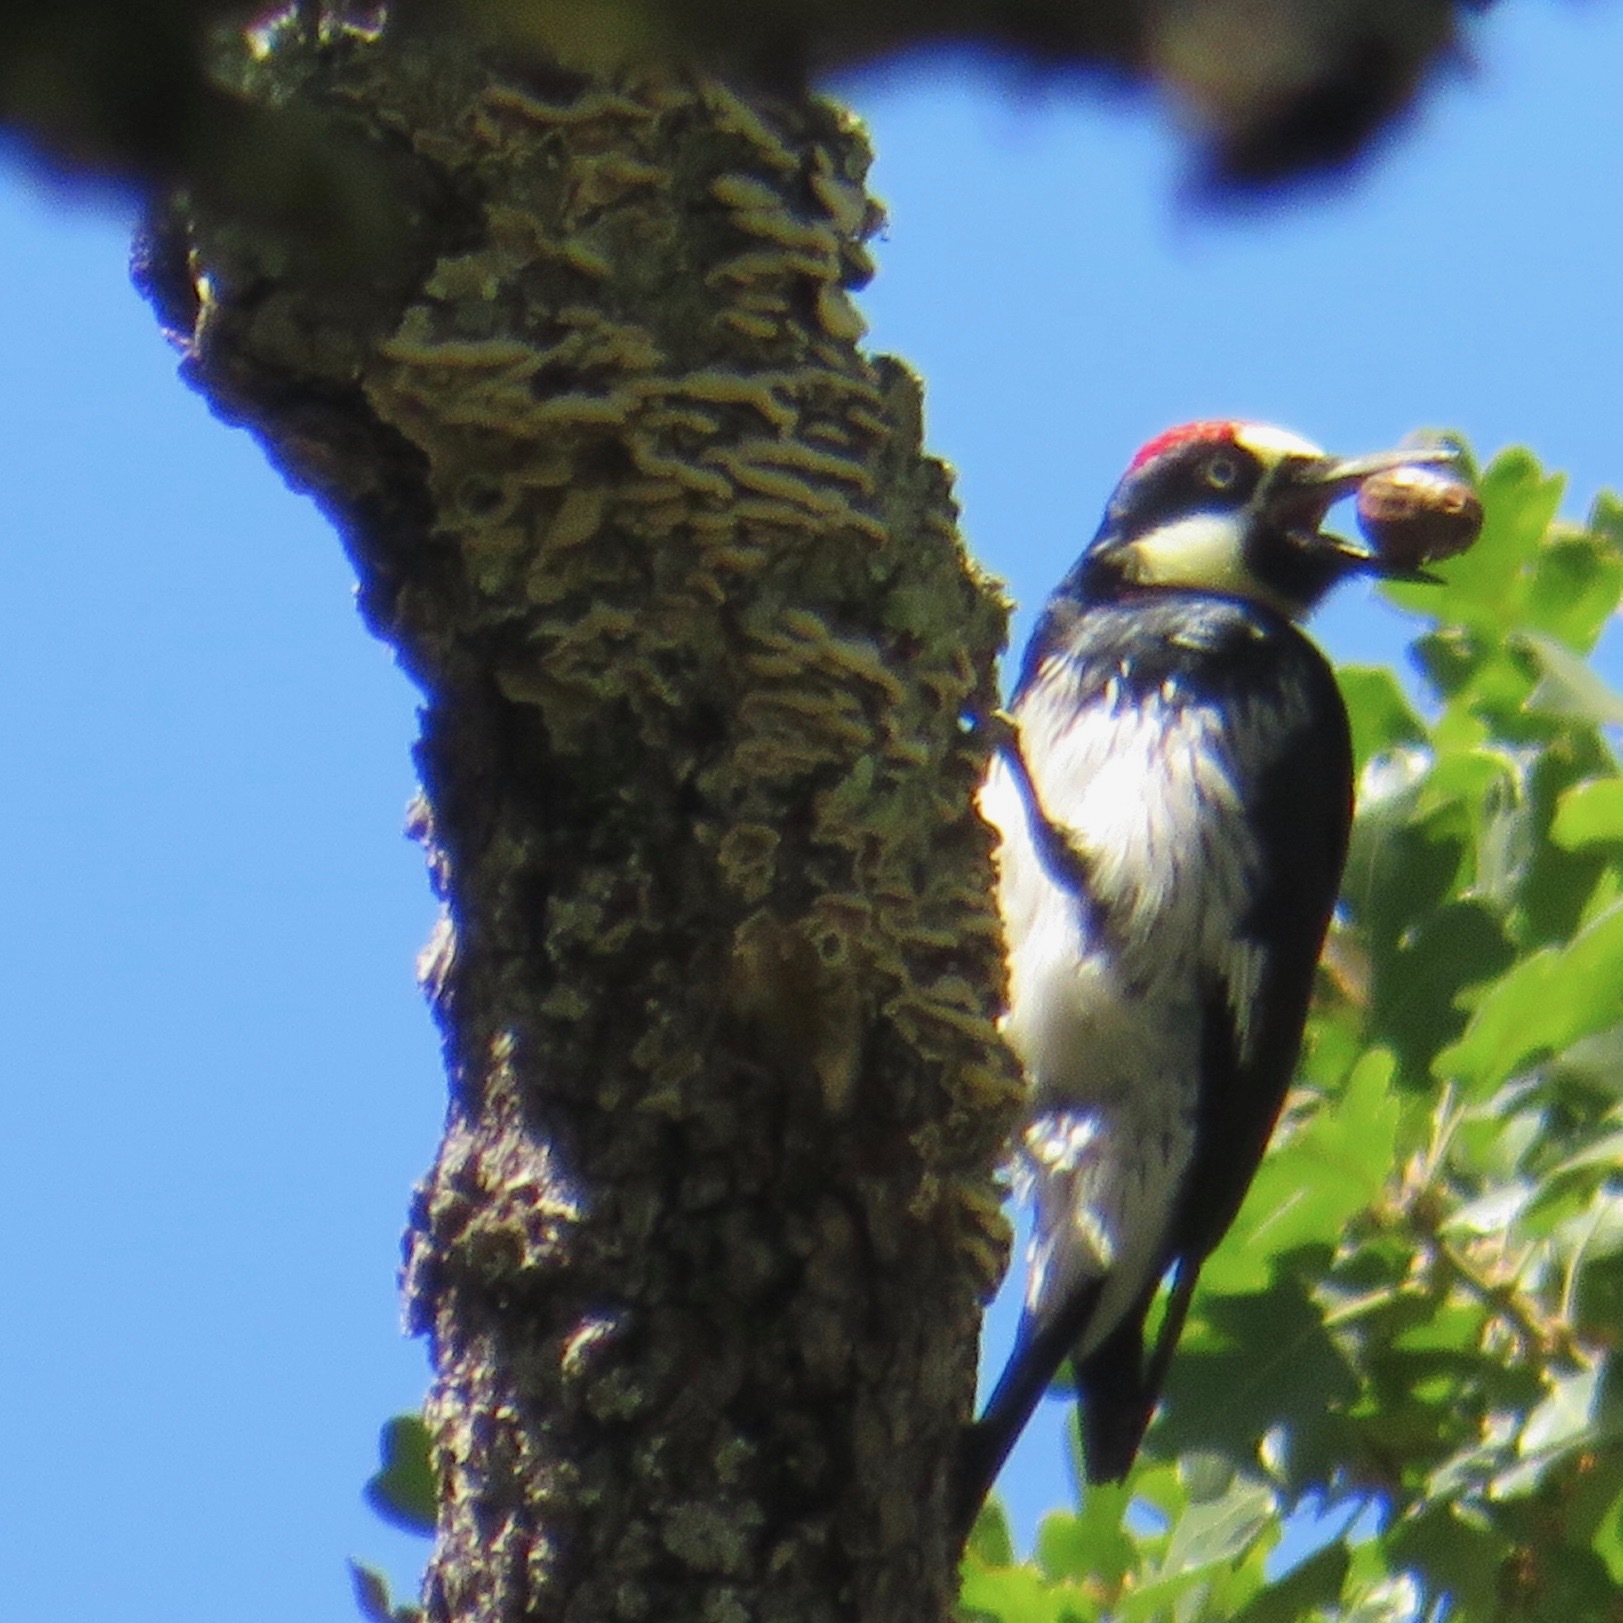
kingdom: Animalia
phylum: Chordata
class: Aves
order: Piciformes
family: Picidae
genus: Melanerpes
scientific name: Melanerpes formicivorus
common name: Acorn woodpecker
